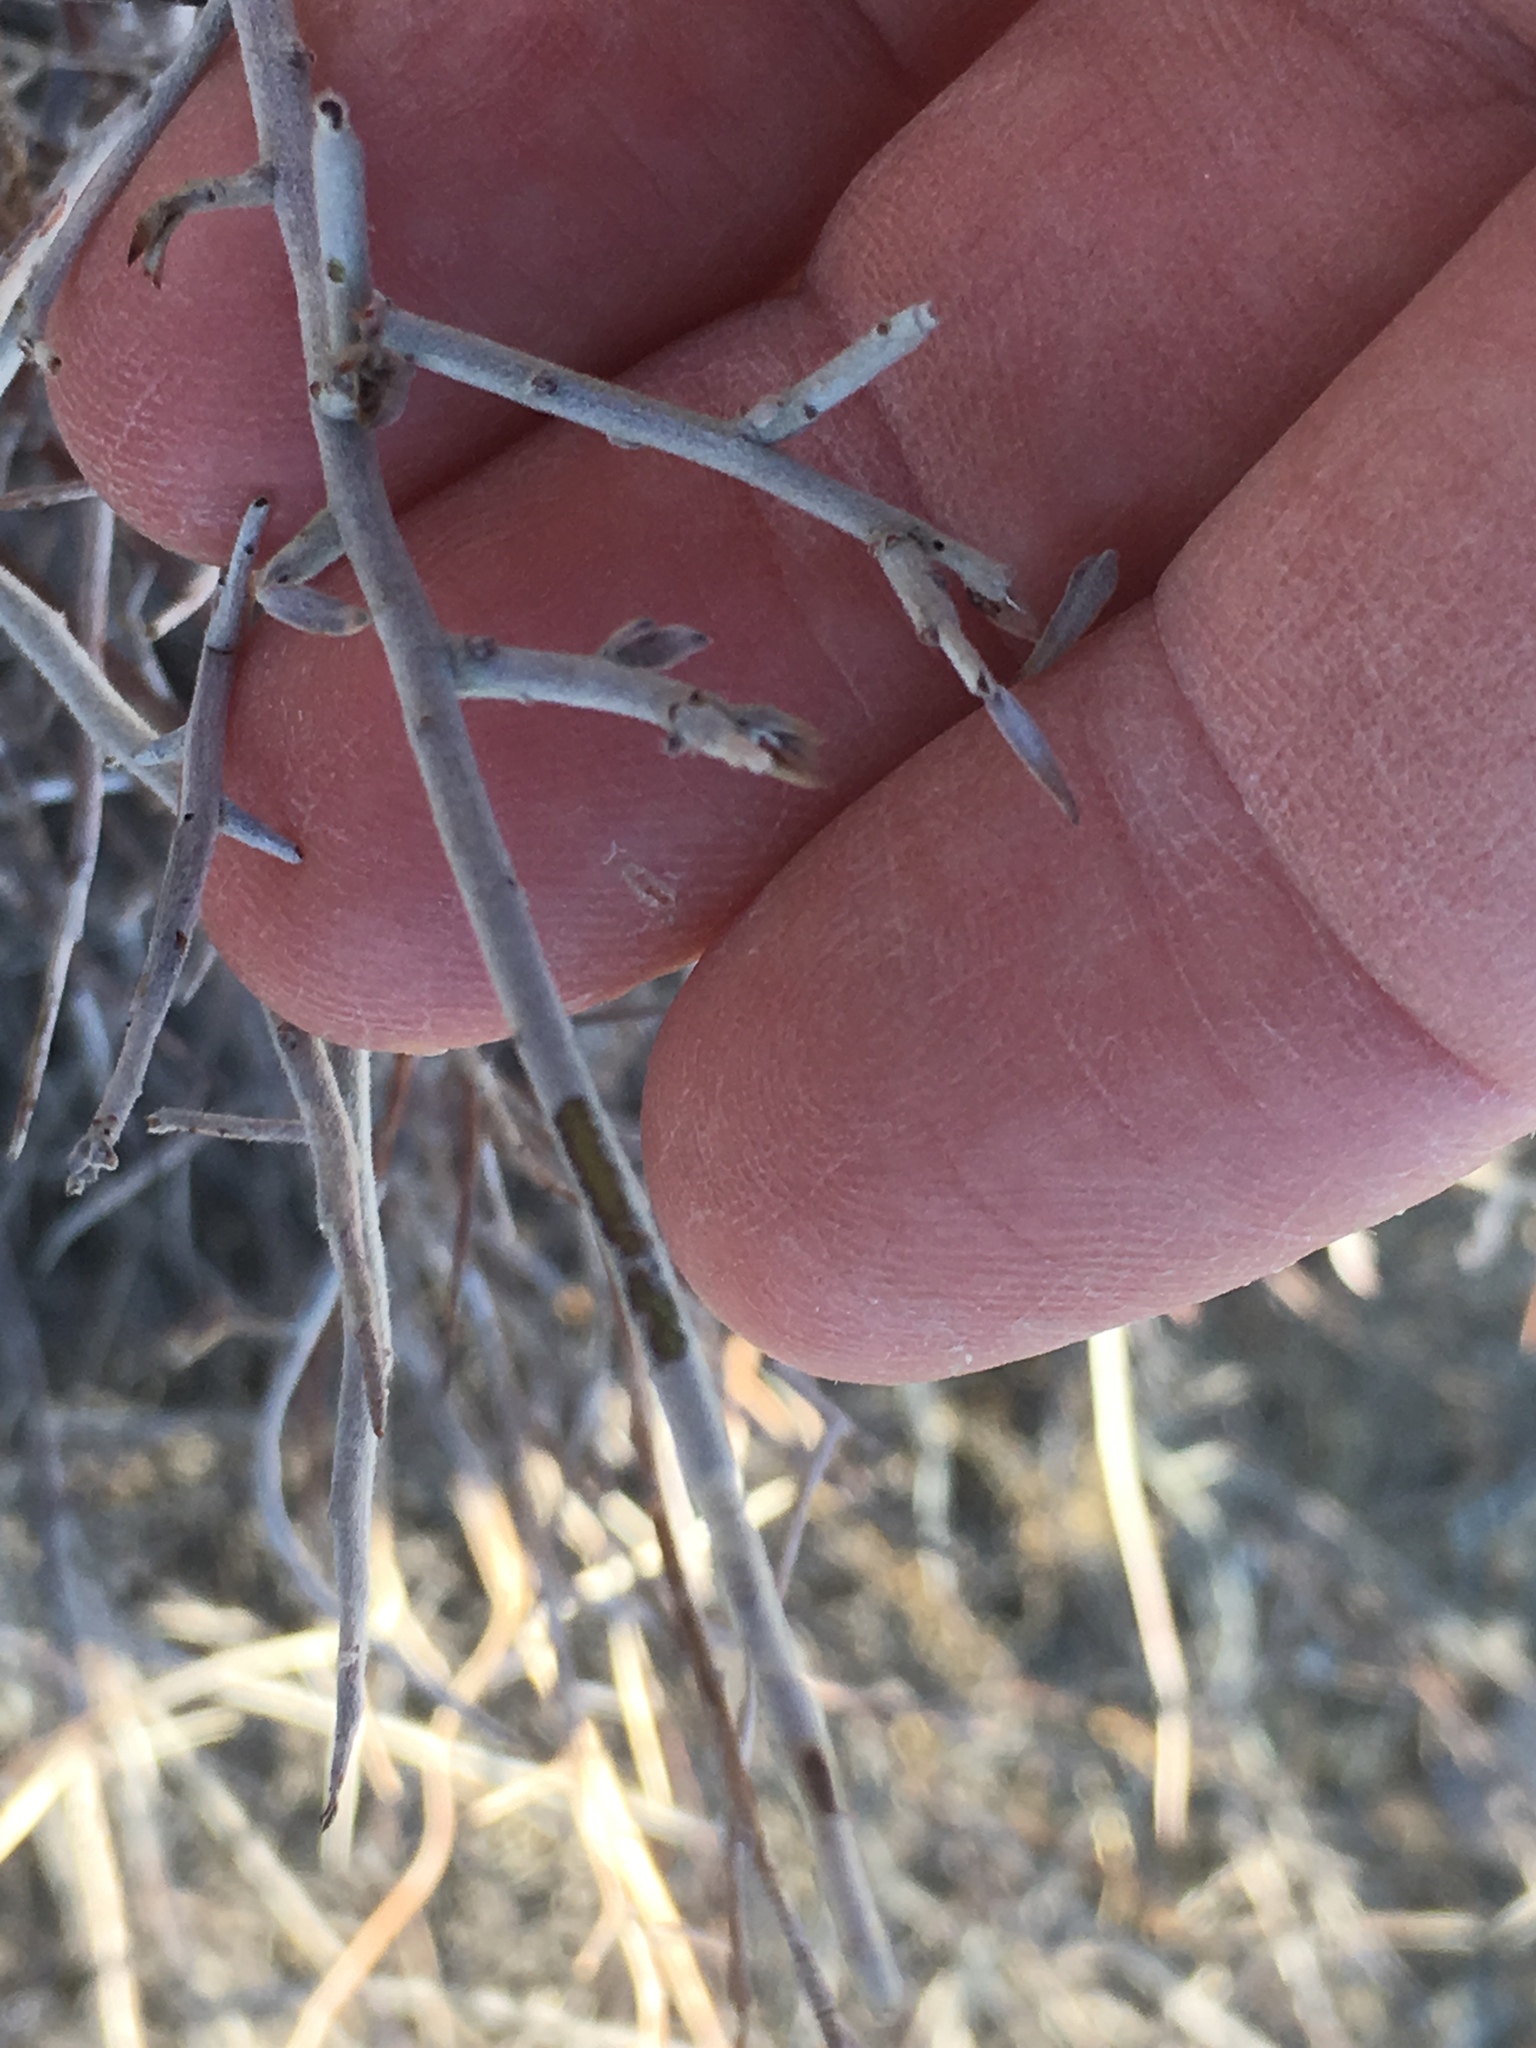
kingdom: Plantae
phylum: Tracheophyta
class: Magnoliopsida
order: Zygophyllales
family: Krameriaceae
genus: Krameria
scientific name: Krameria bicolor
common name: White ratany
